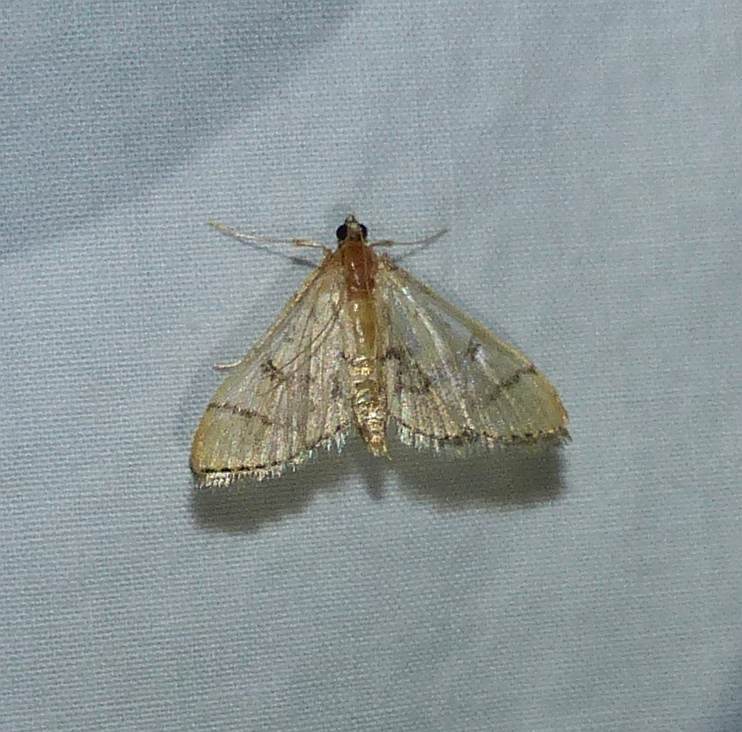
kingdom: Animalia
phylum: Arthropoda
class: Insecta
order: Lepidoptera
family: Crambidae
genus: Lamprosema
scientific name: Lamprosema Blepharomastix ranalis
